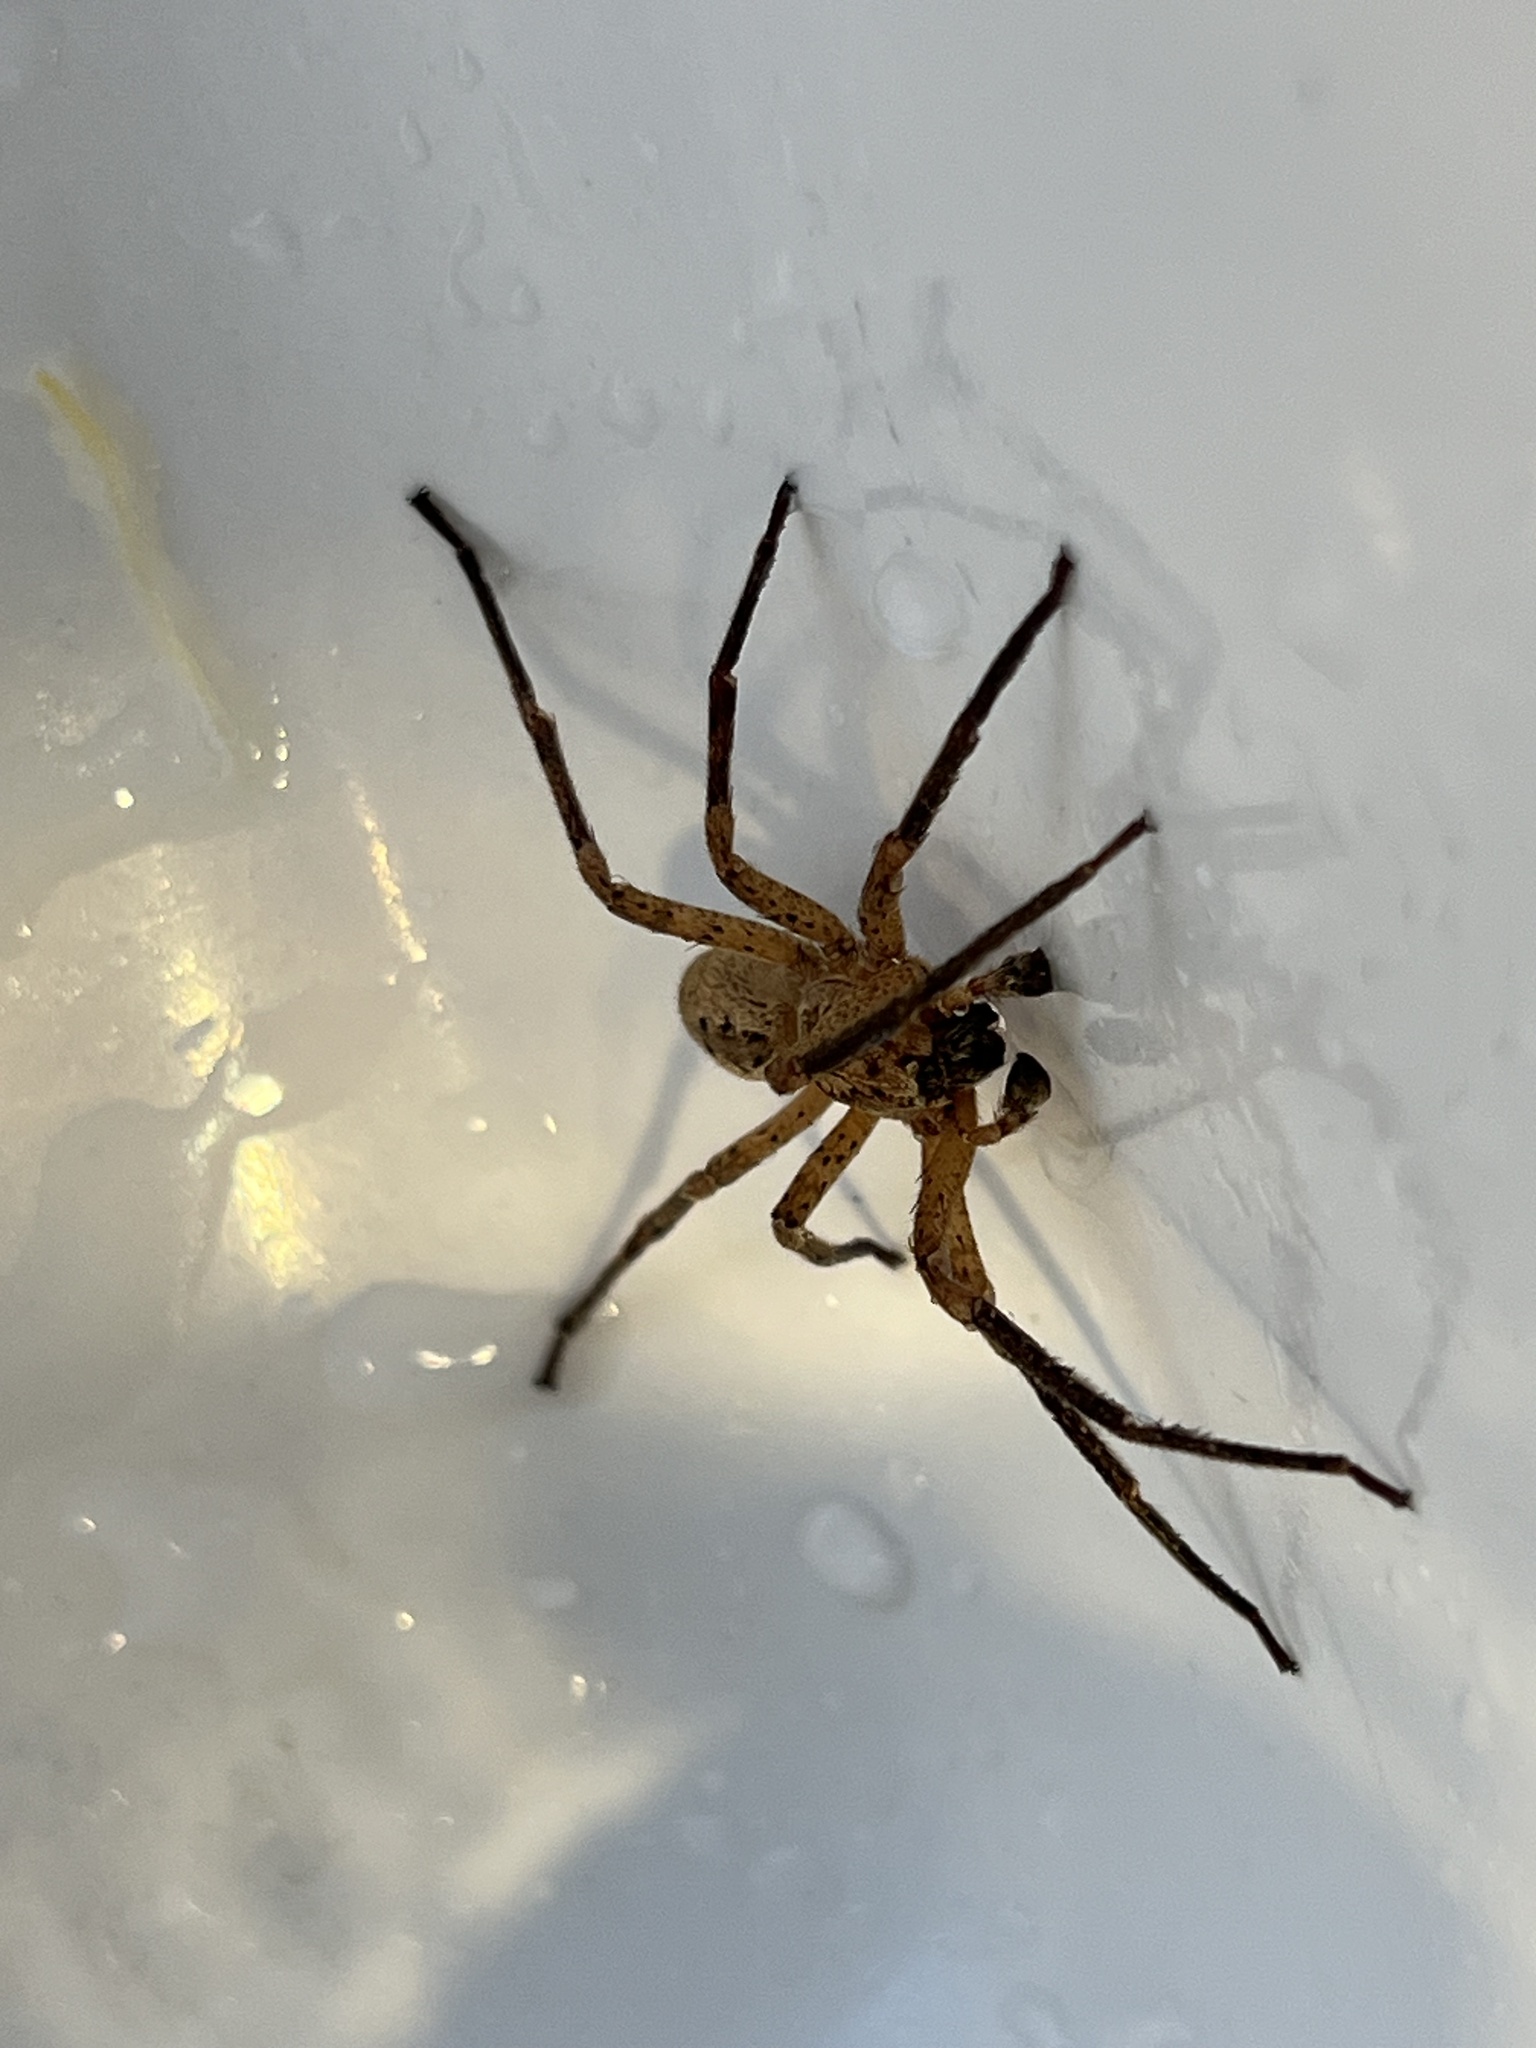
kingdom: Animalia
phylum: Arthropoda
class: Arachnida
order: Araneae
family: Zoropsidae
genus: Zoropsis
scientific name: Zoropsis spinimana
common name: Zoropsid spider
